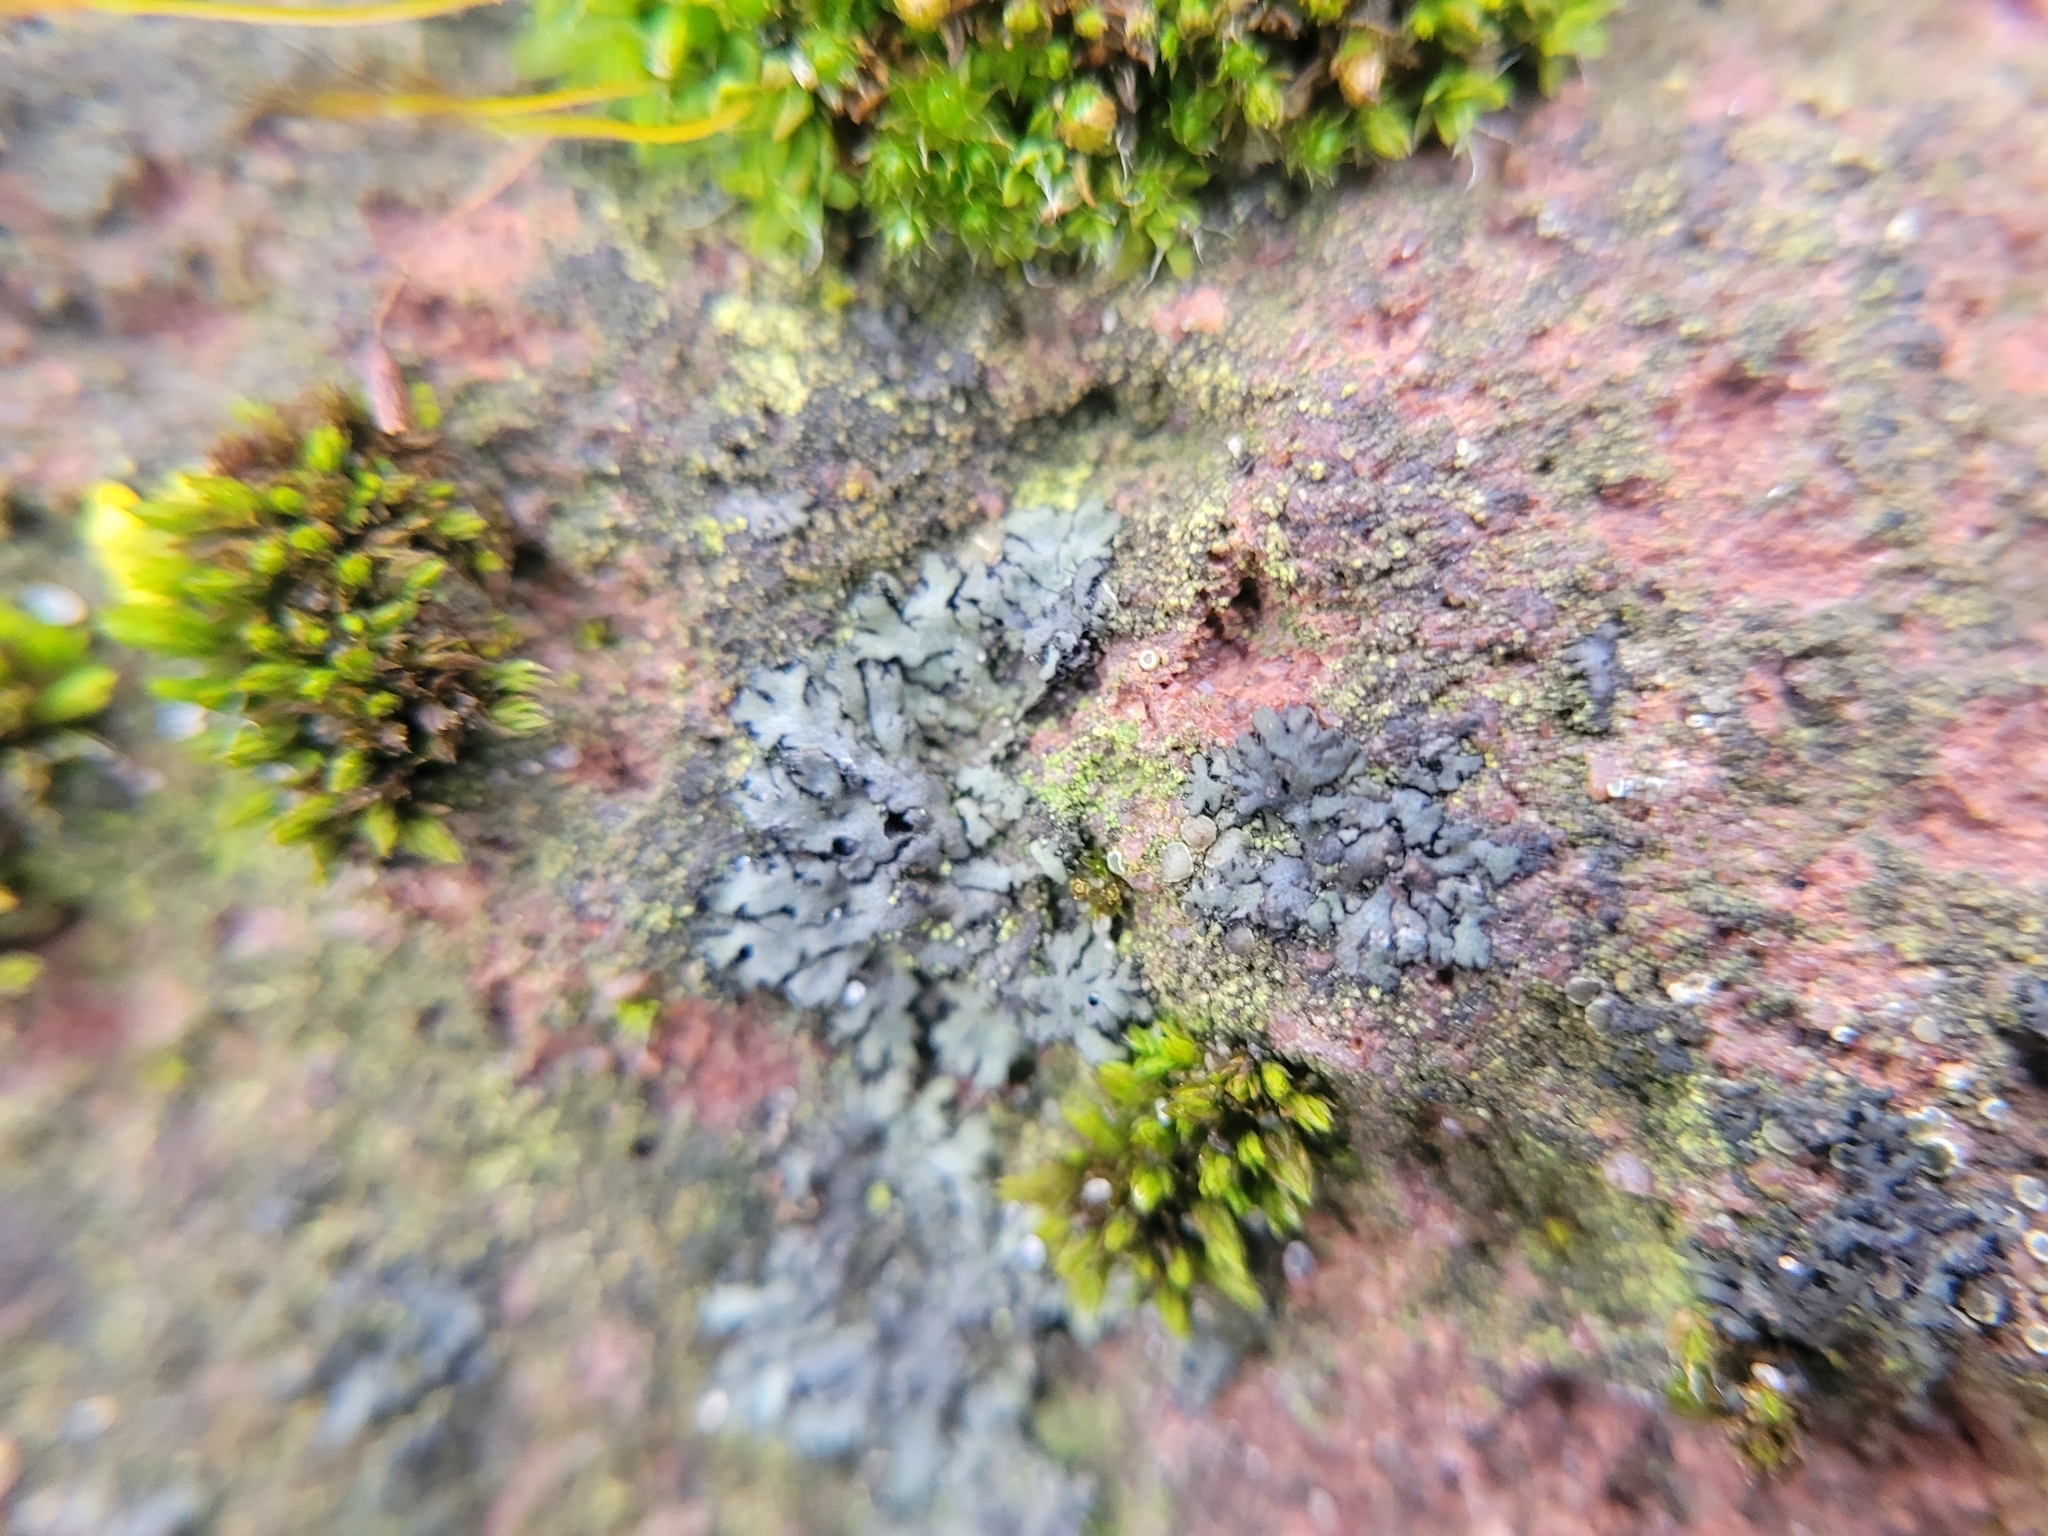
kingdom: Fungi
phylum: Ascomycota
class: Lecanoromycetes
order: Caliciales
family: Physciaceae
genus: Phaeophyscia
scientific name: Phaeophyscia orbicularis
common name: Mealy shadow lichen
